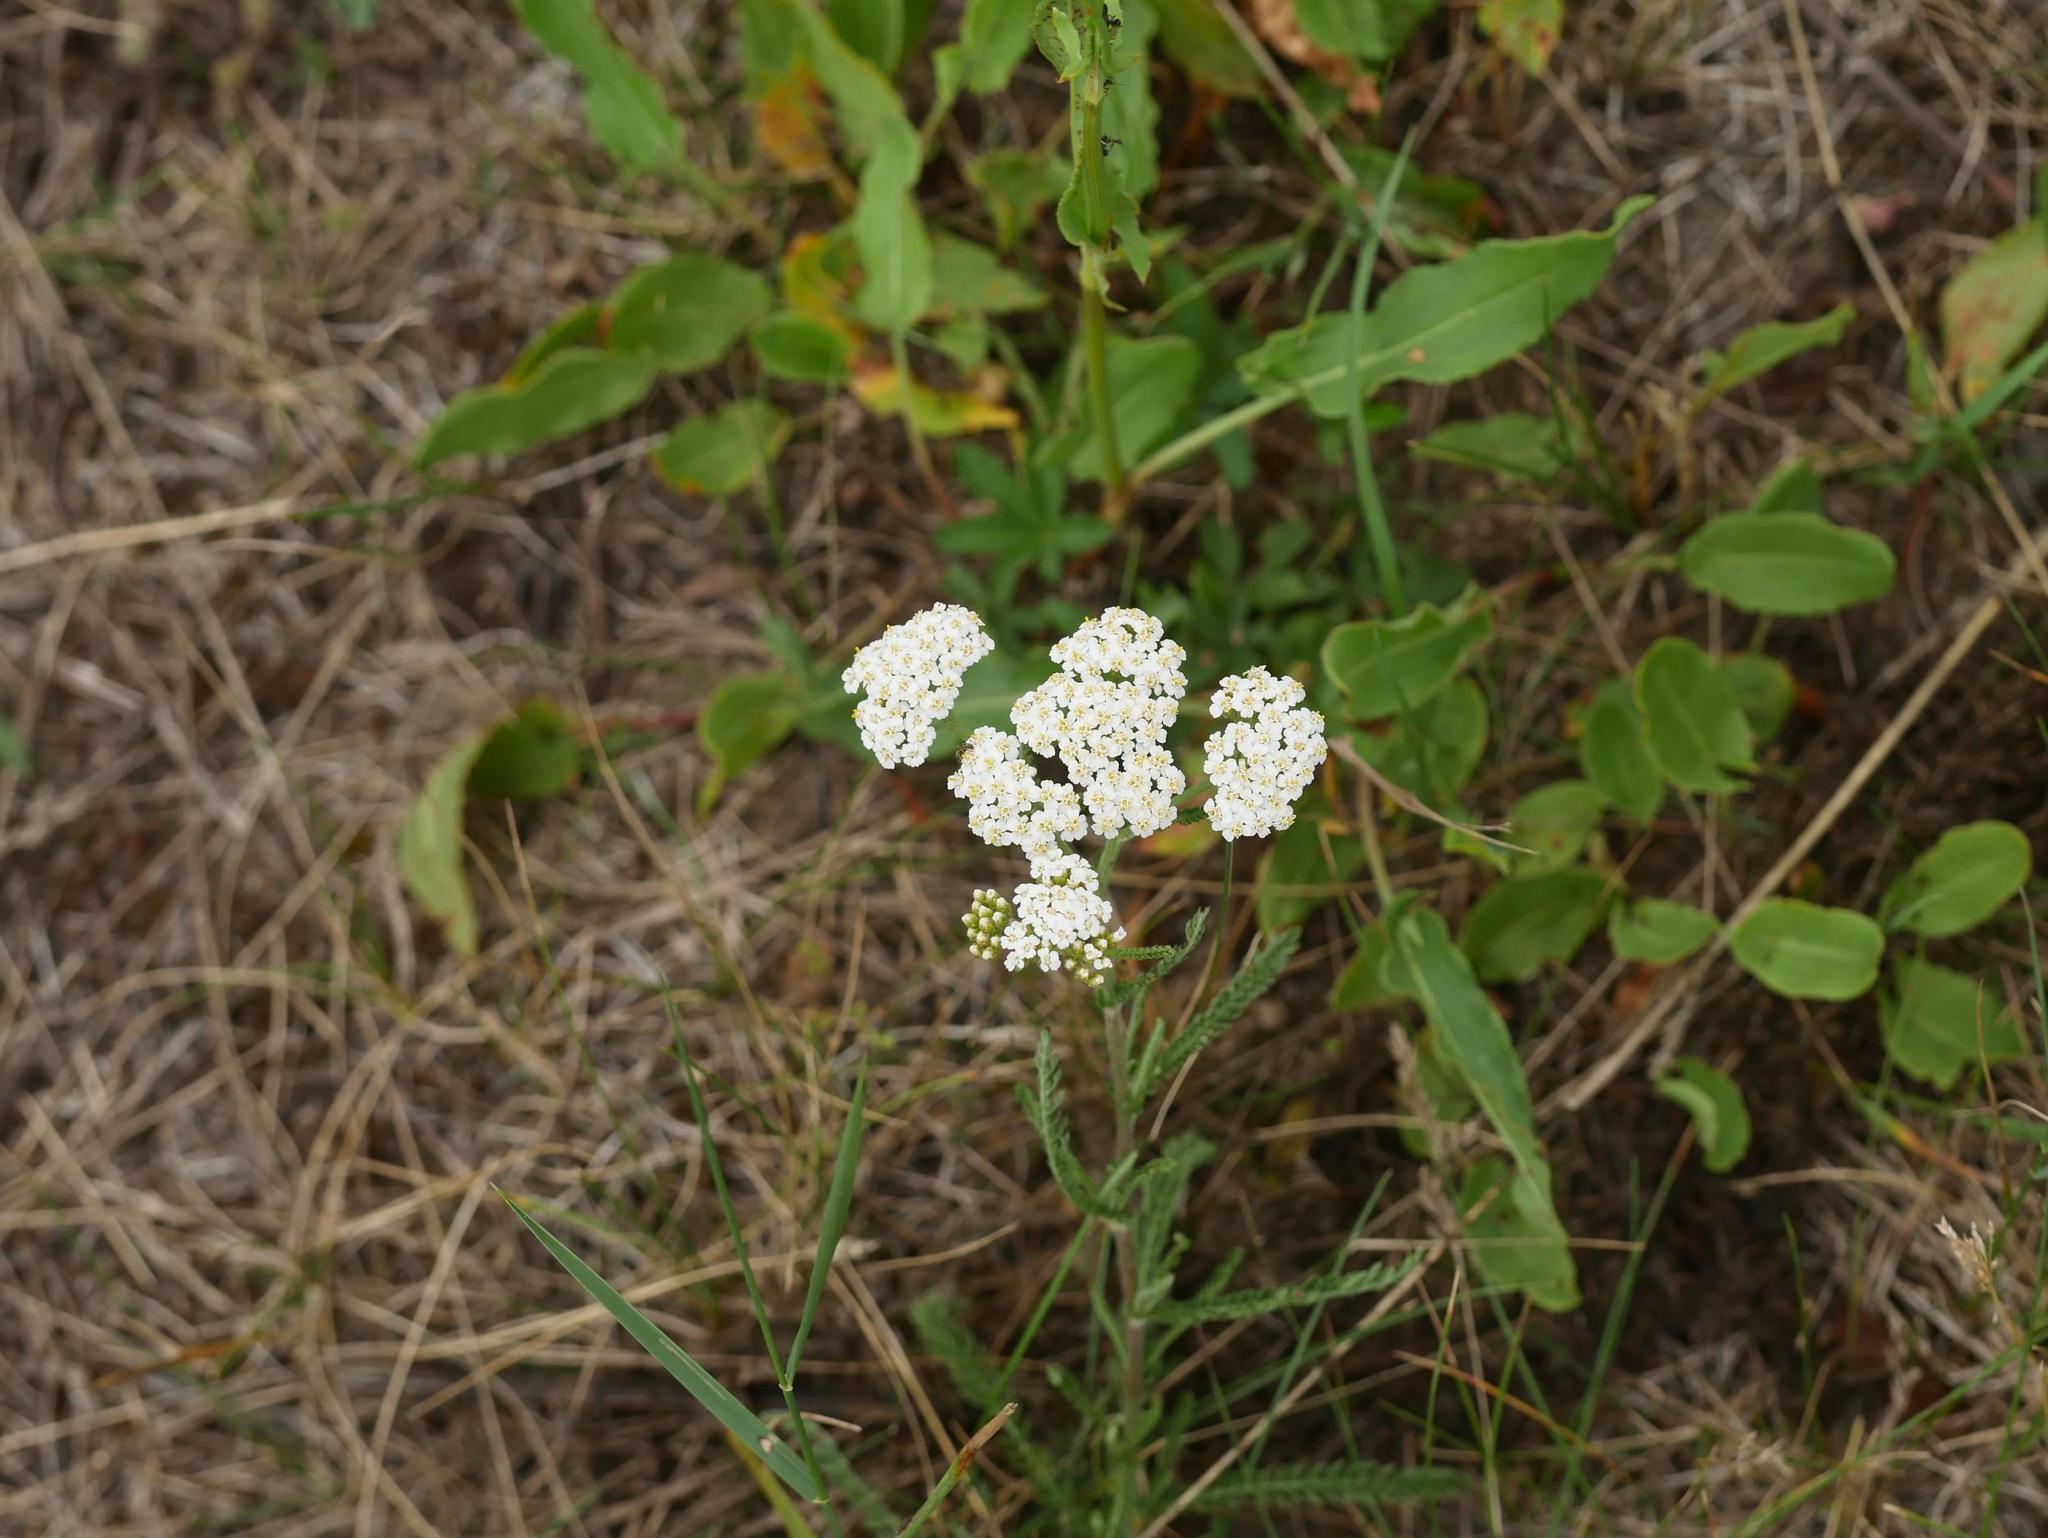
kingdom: Plantae
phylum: Tracheophyta
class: Magnoliopsida
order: Asterales
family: Asteraceae
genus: Achillea
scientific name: Achillea millefolium
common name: Yarrow
